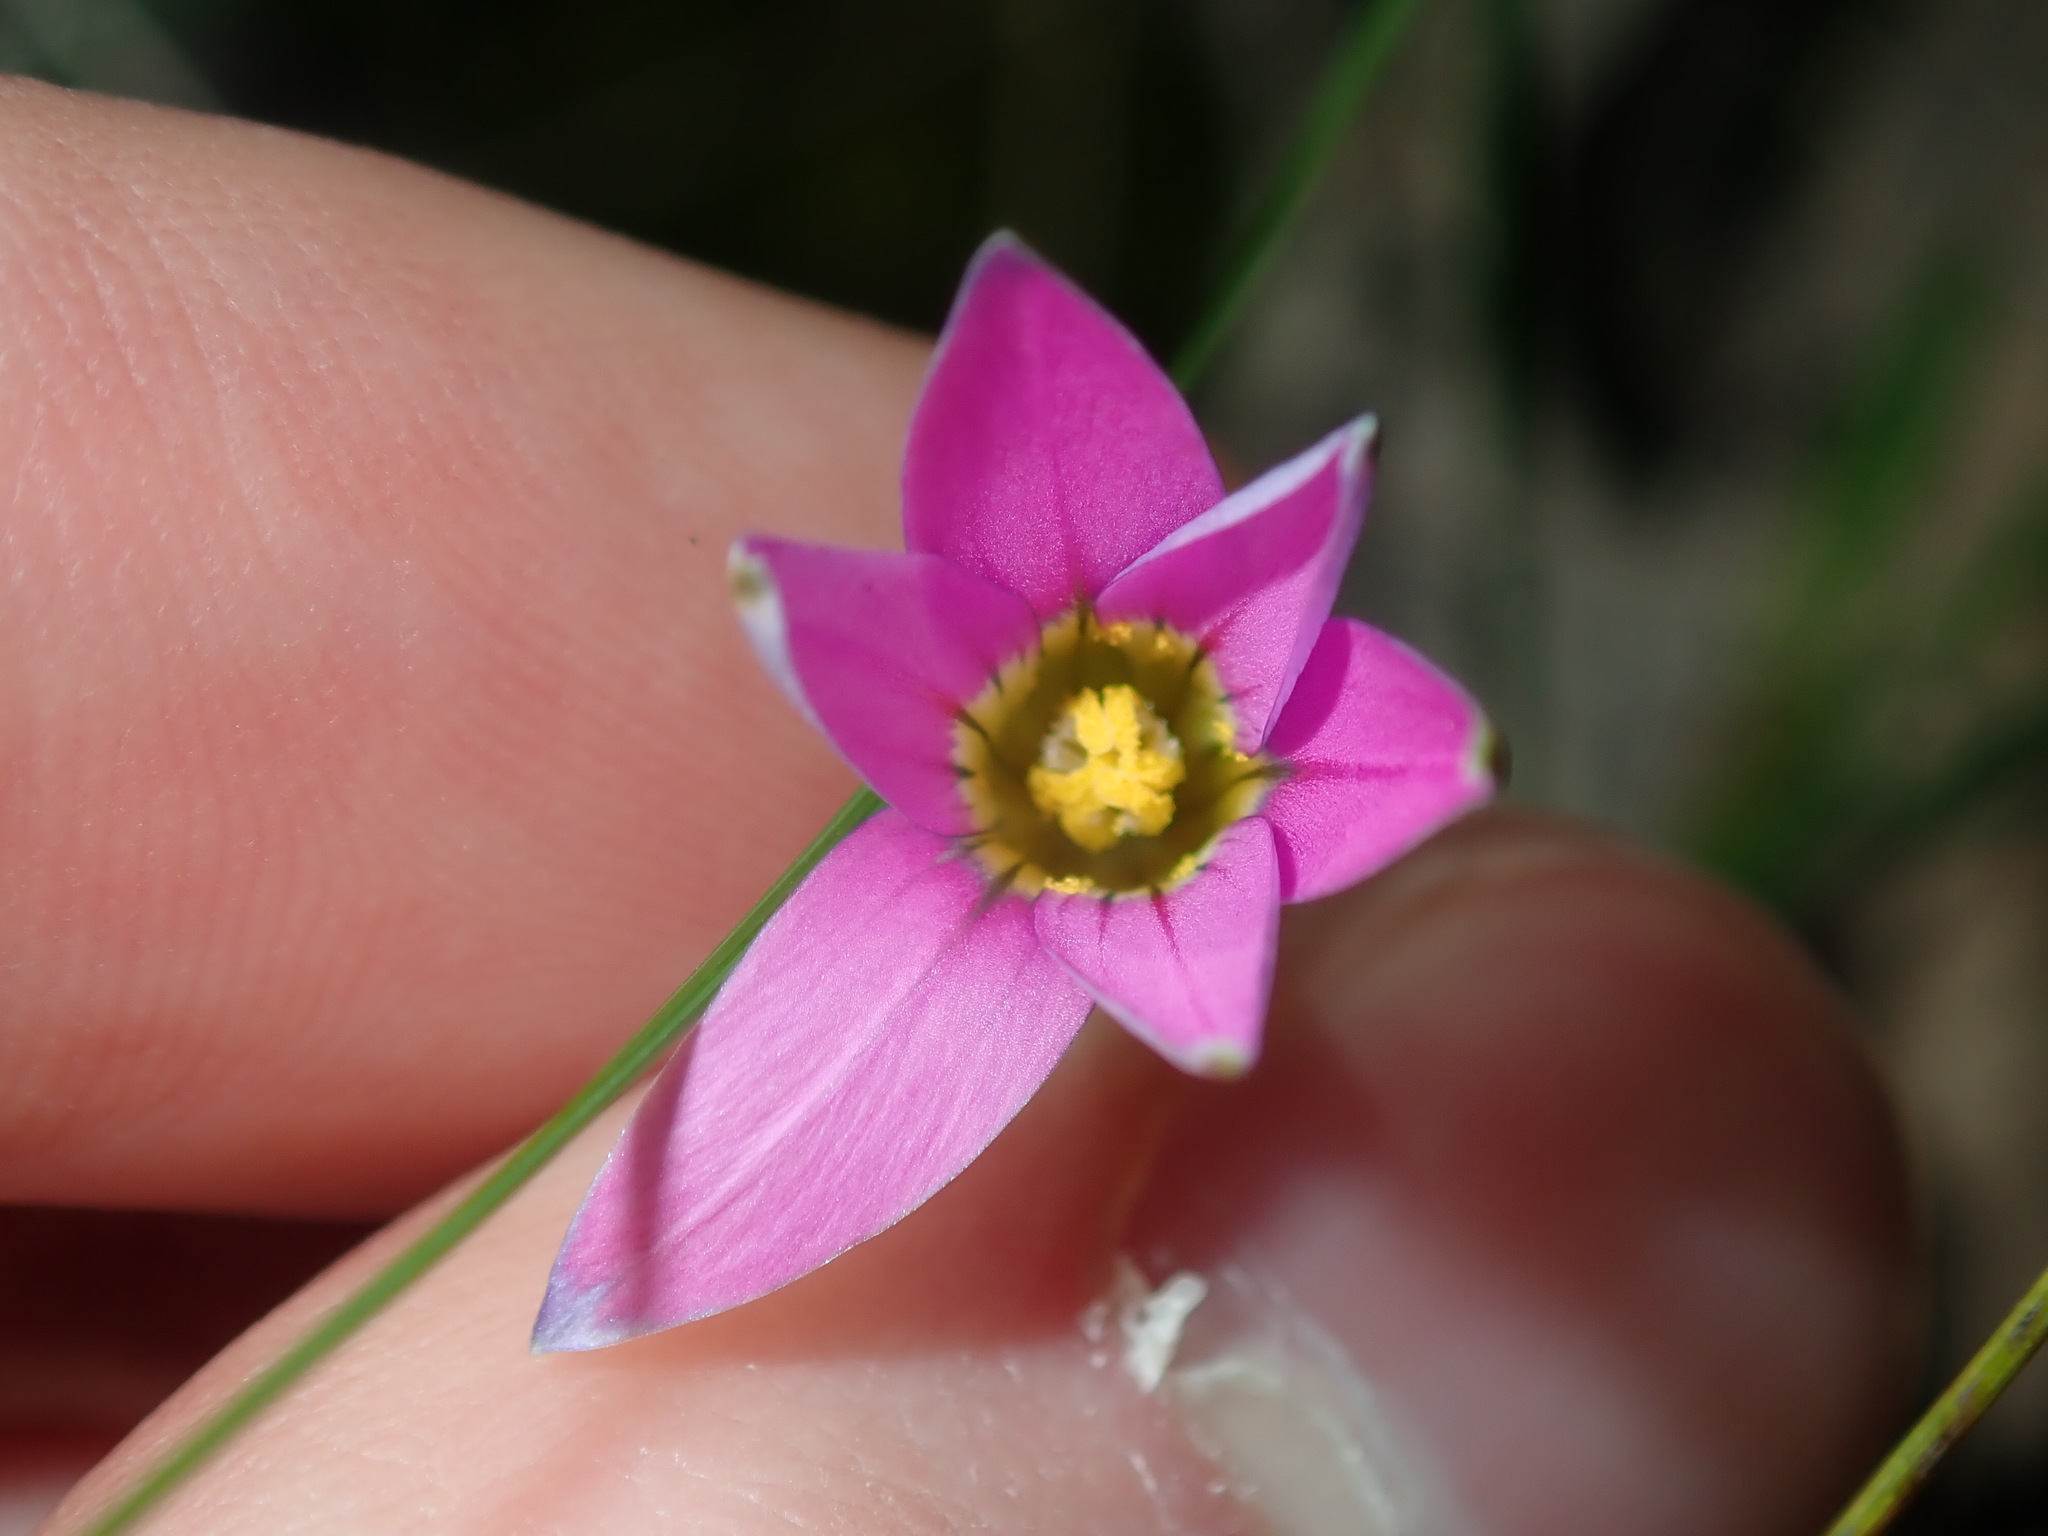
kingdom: Plantae
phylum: Tracheophyta
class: Liliopsida
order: Asparagales
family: Iridaceae
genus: Romulea
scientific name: Romulea rosea
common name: Oniongrass
